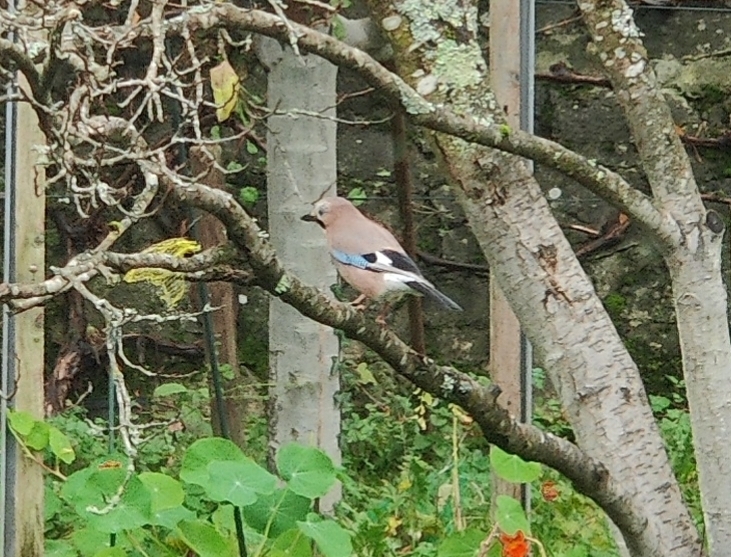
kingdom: Animalia
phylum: Chordata
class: Aves
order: Passeriformes
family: Corvidae
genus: Garrulus
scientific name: Garrulus glandarius
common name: Eurasian jay
